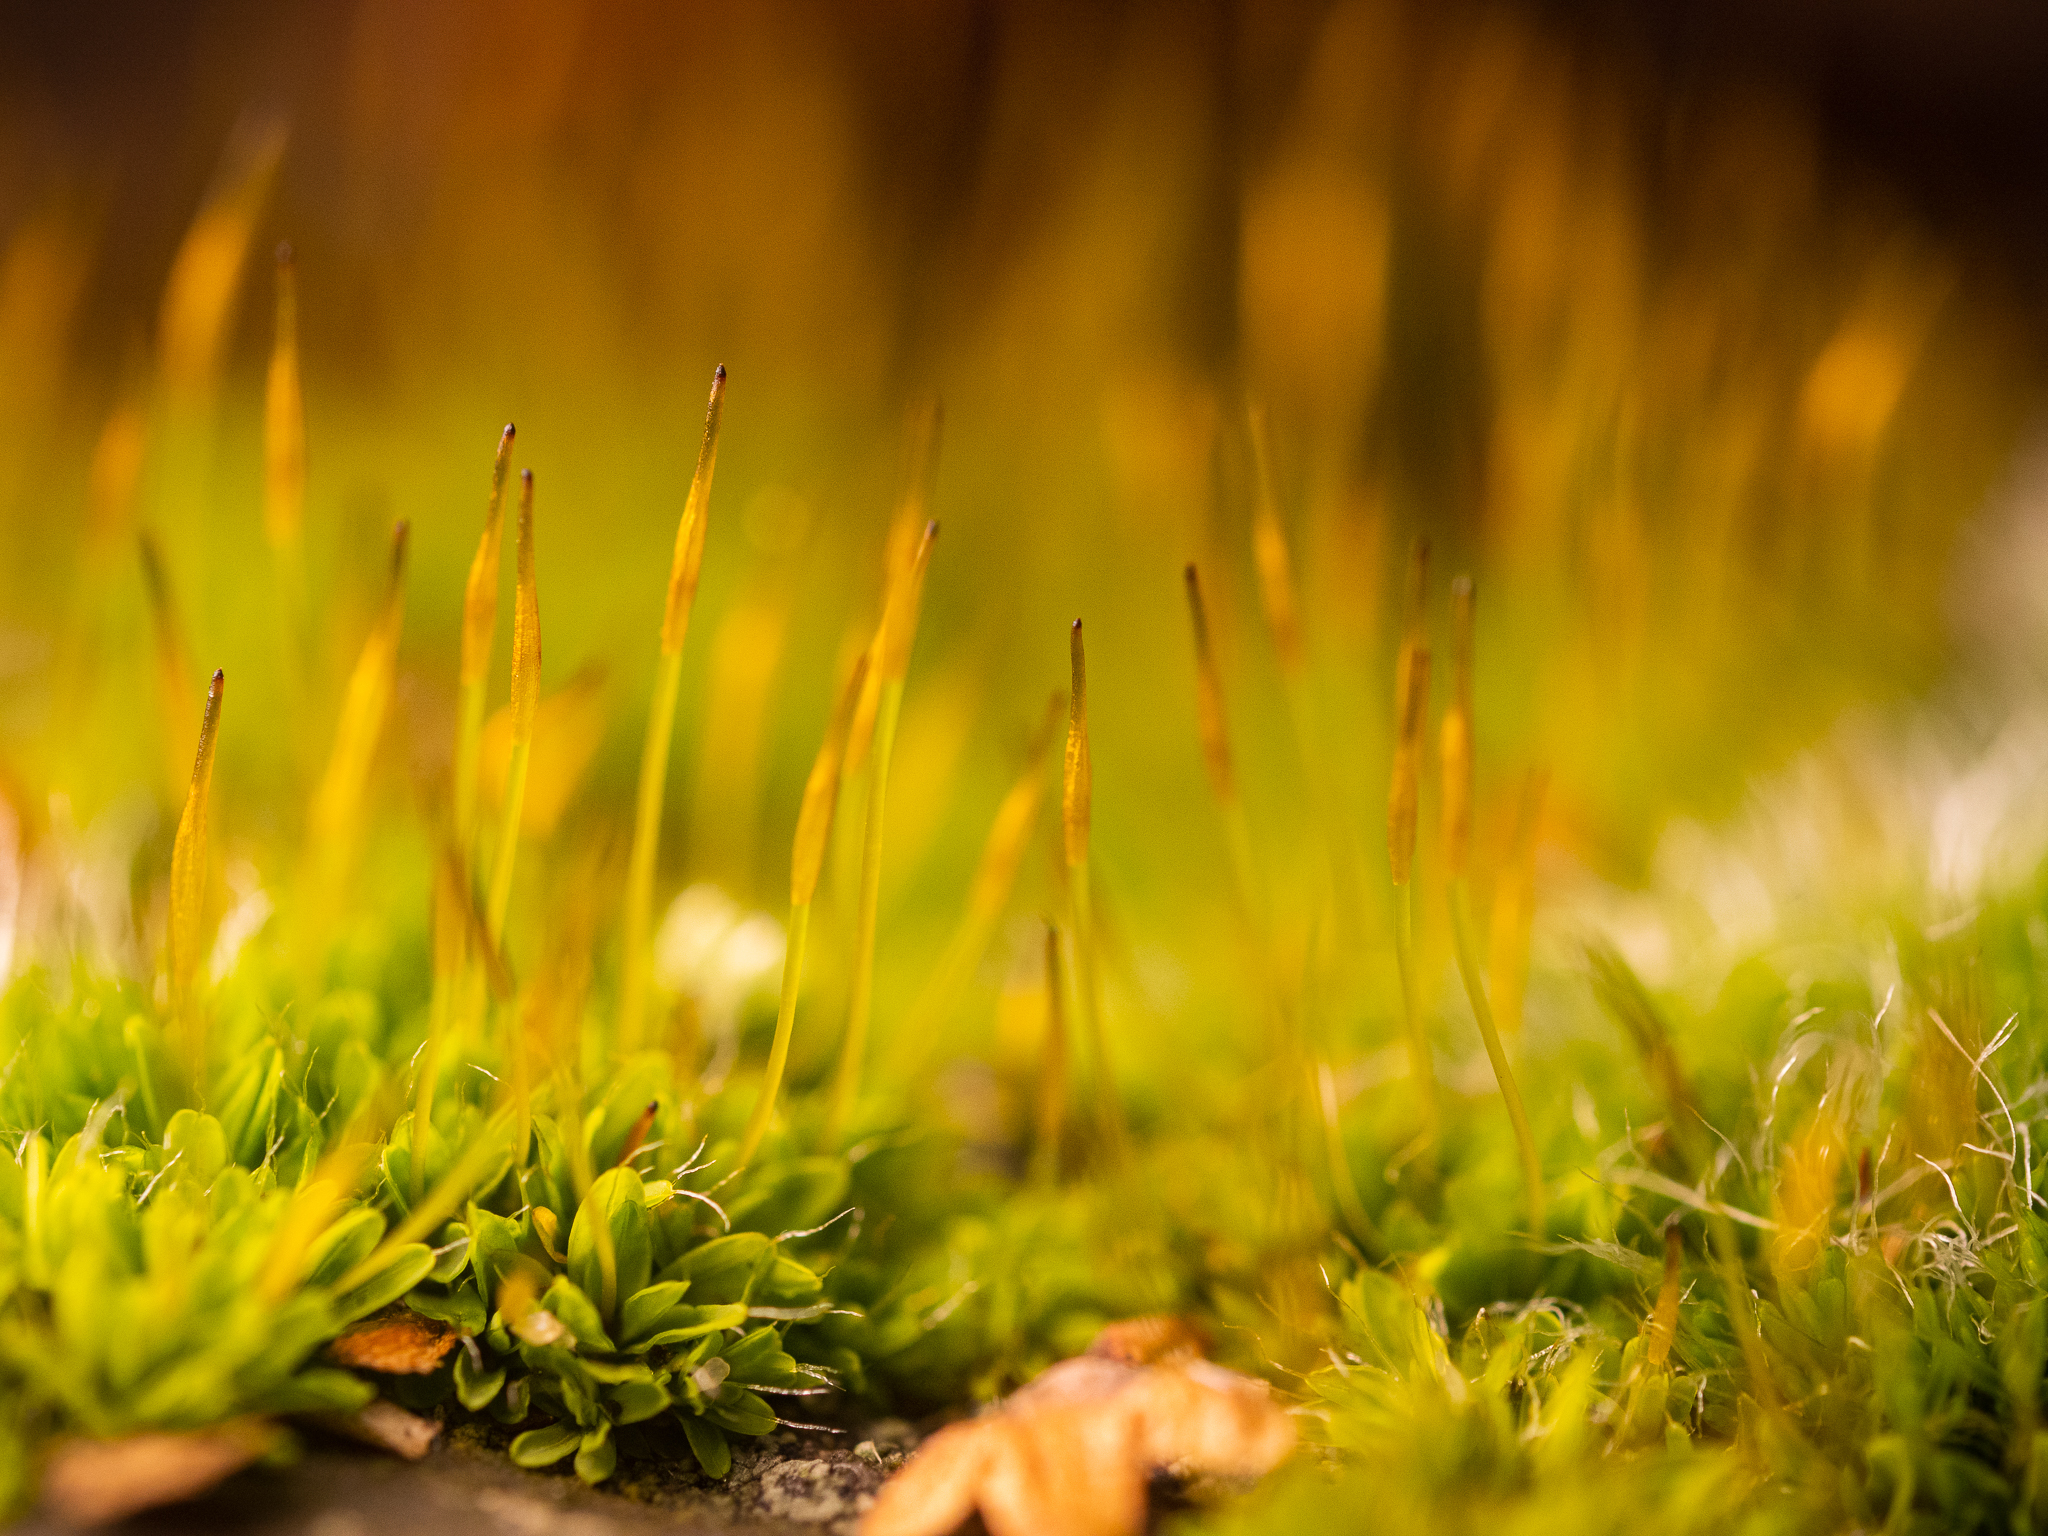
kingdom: Plantae
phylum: Bryophyta
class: Bryopsida
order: Pottiales
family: Pottiaceae
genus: Tortula
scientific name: Tortula muralis
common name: Wall screw-moss
